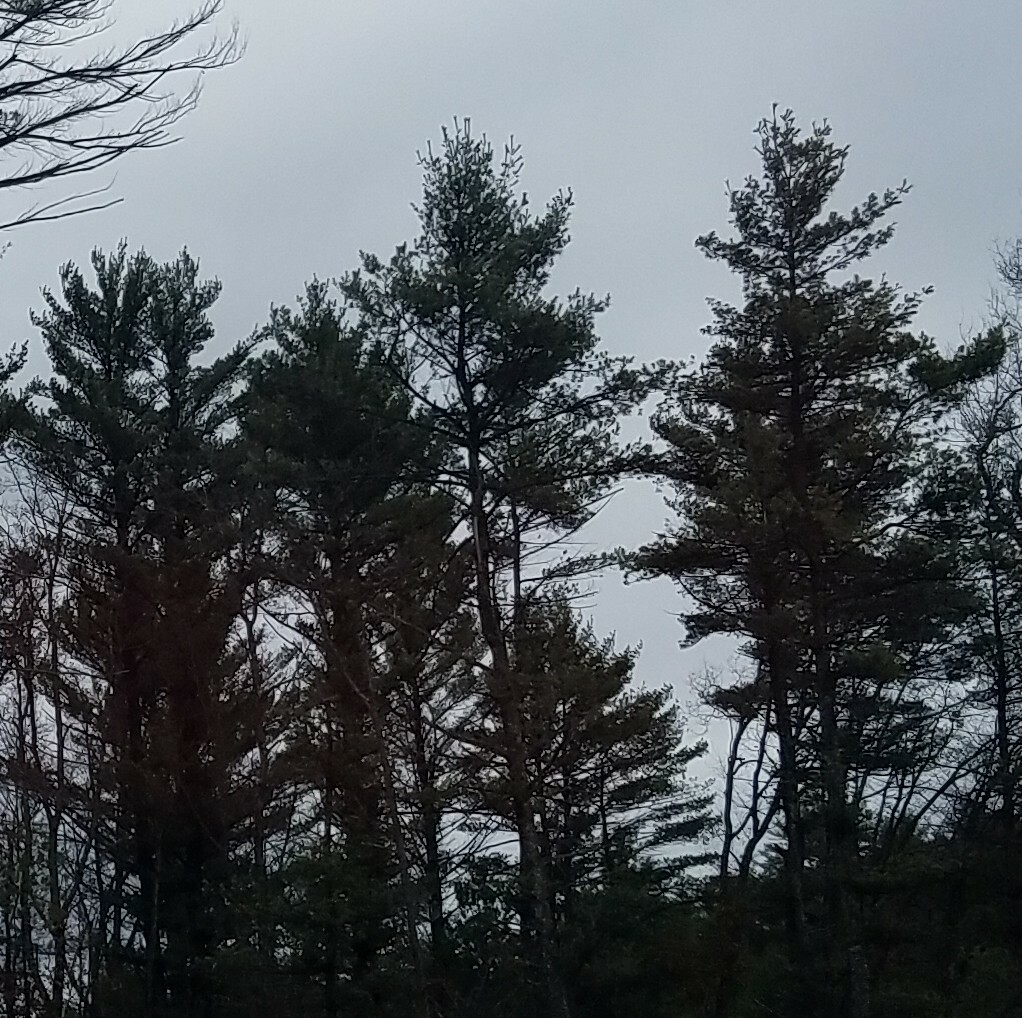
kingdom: Plantae
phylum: Tracheophyta
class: Pinopsida
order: Pinales
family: Pinaceae
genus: Pinus
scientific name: Pinus strobus
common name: Weymouth pine
